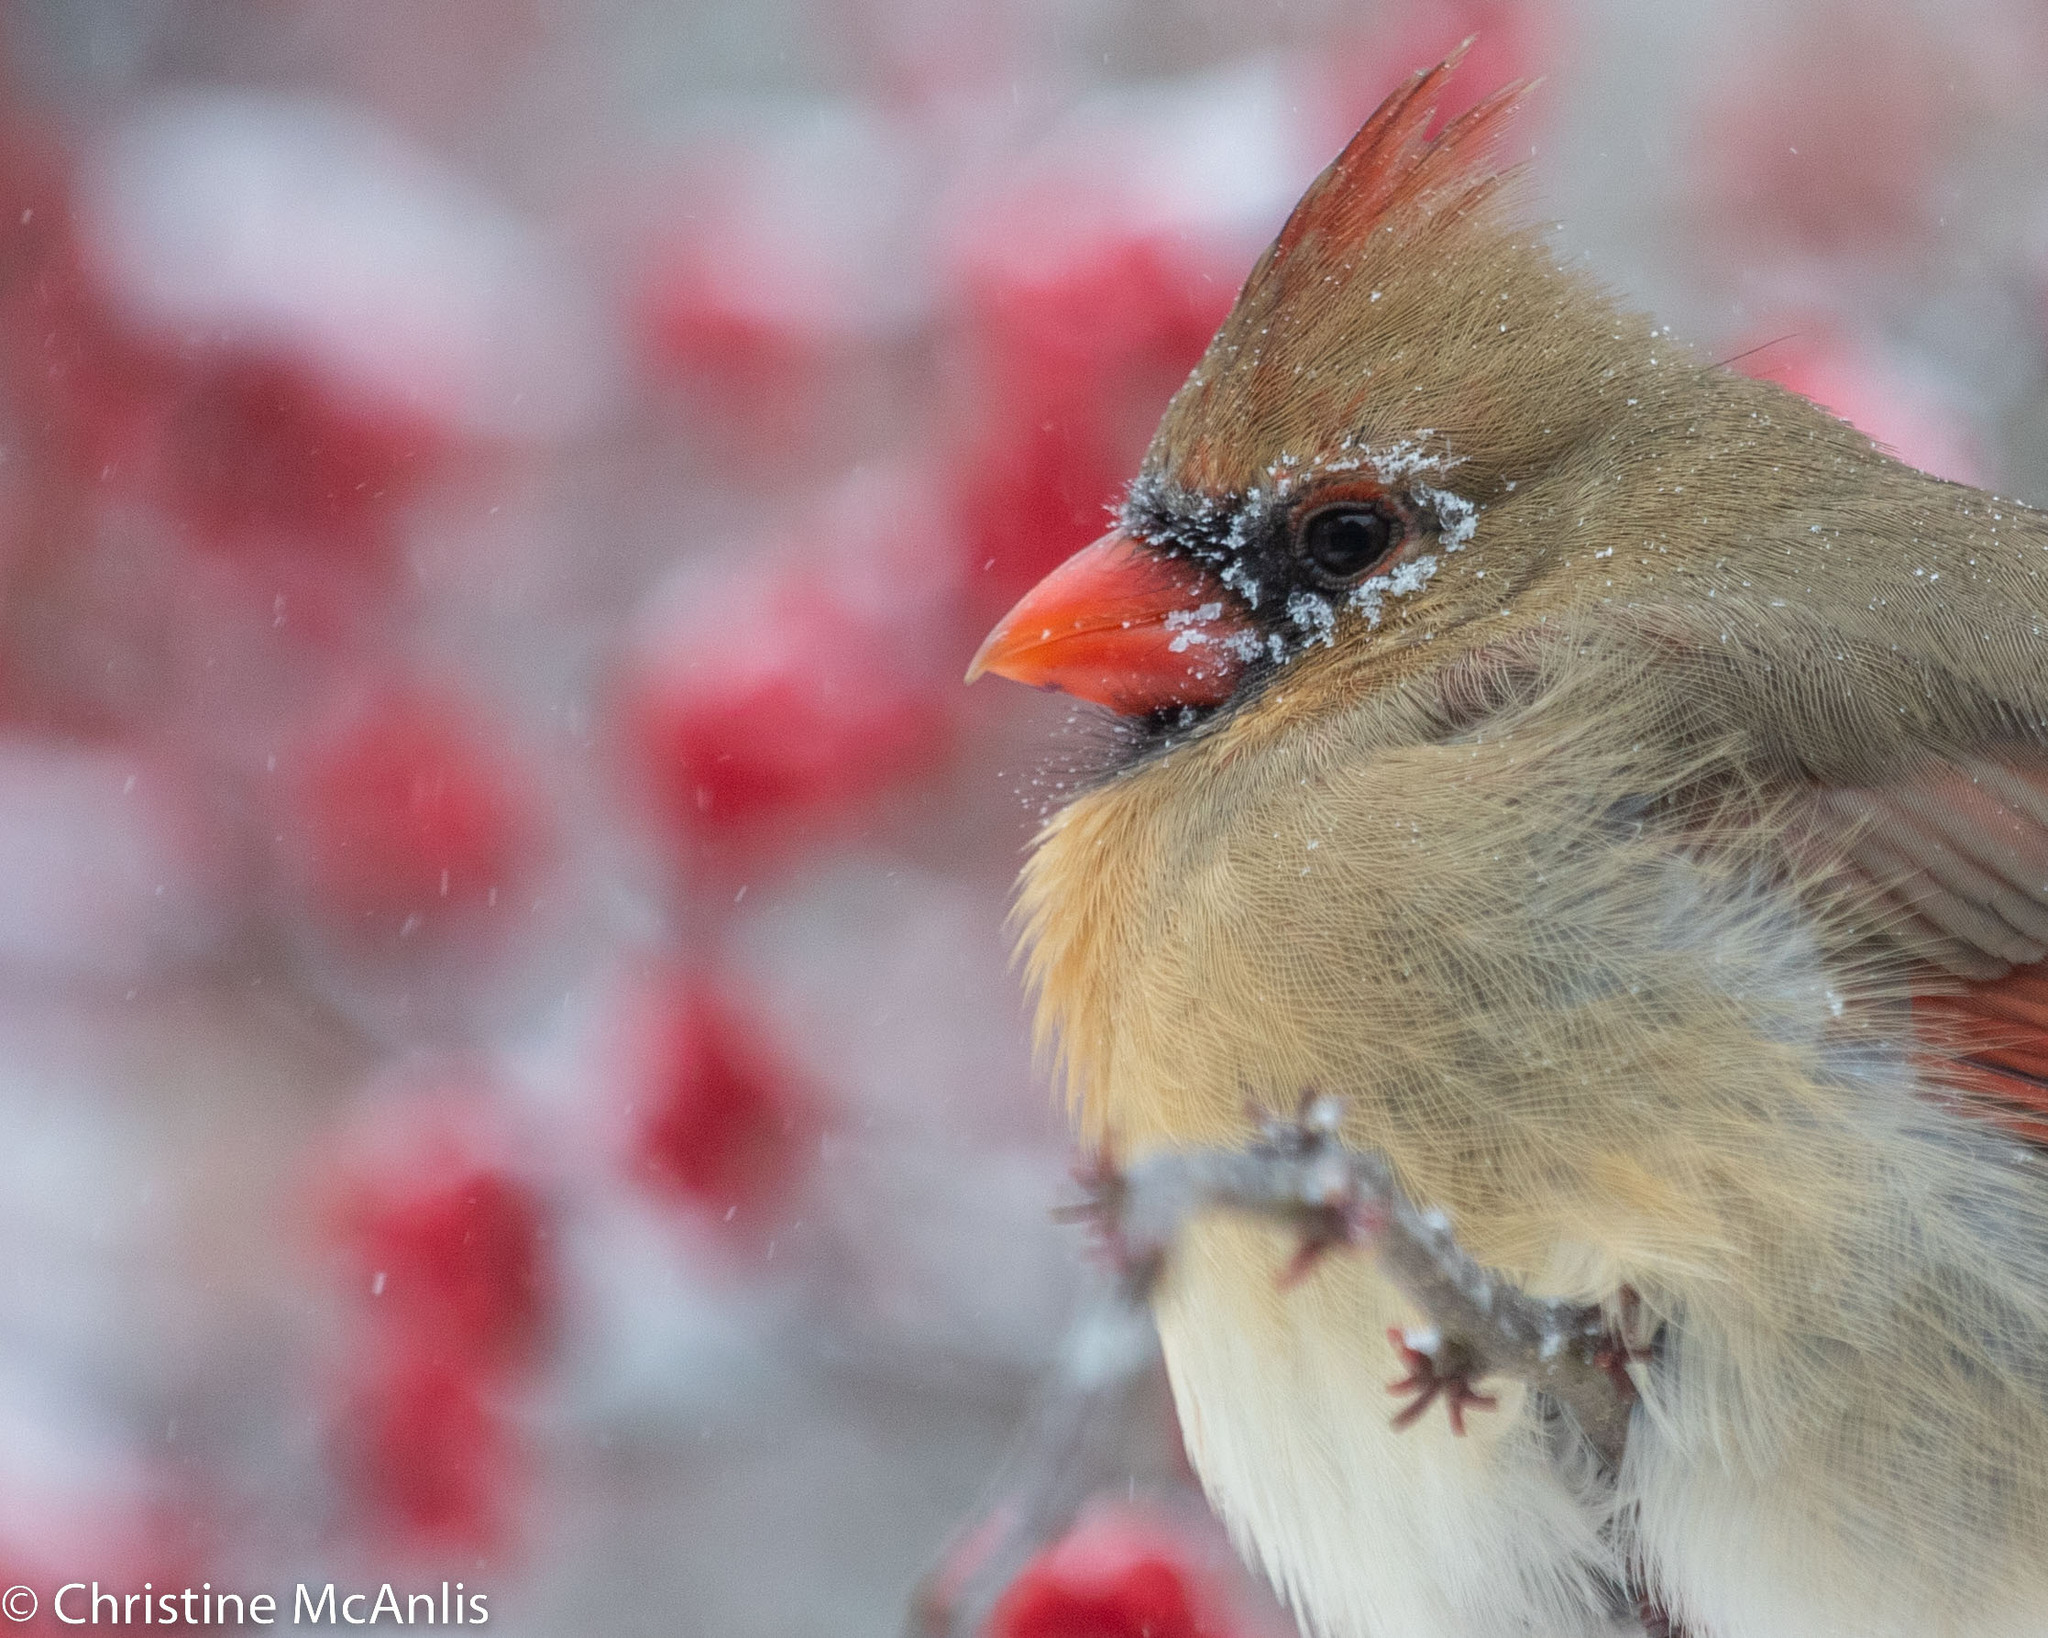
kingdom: Animalia
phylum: Chordata
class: Aves
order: Passeriformes
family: Cardinalidae
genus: Cardinalis
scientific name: Cardinalis cardinalis
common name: Northern cardinal
